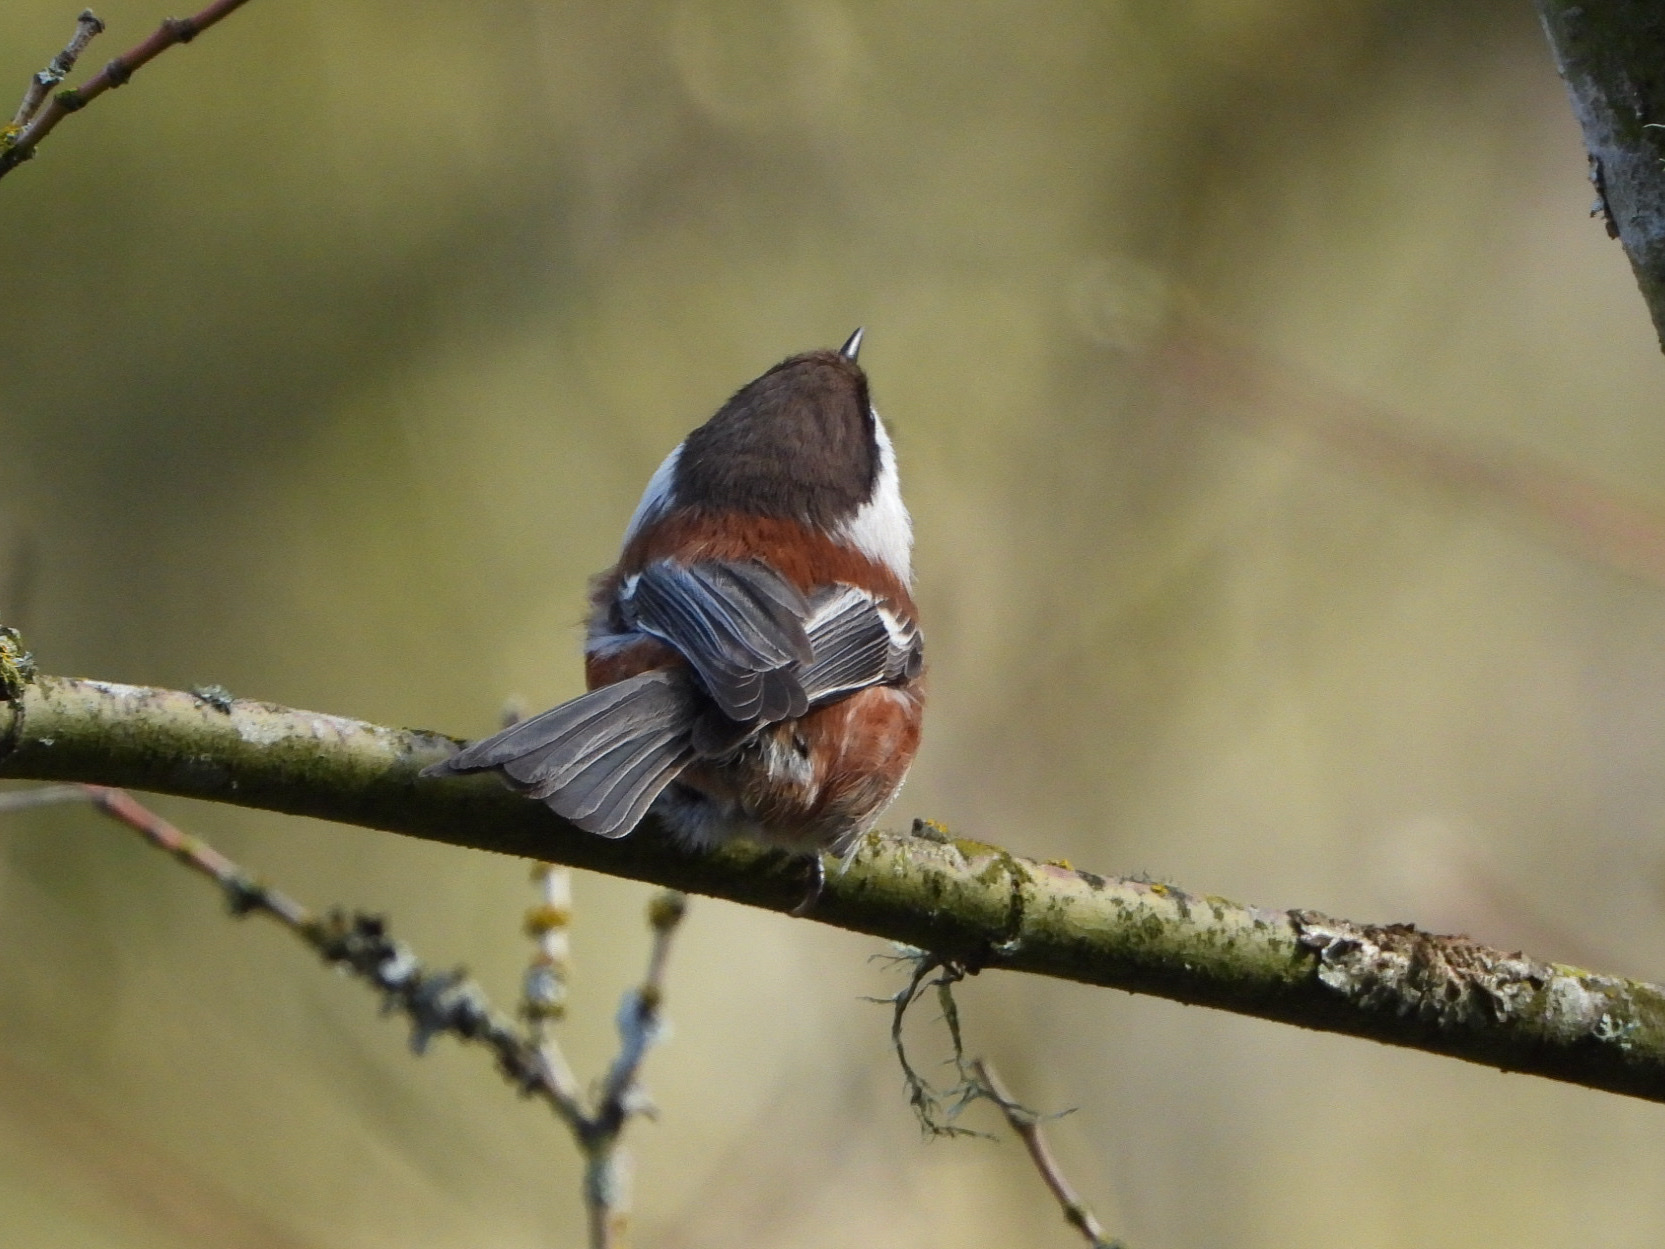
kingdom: Animalia
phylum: Chordata
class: Aves
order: Passeriformes
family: Paridae
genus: Poecile
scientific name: Poecile rufescens
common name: Chestnut-backed chickadee
